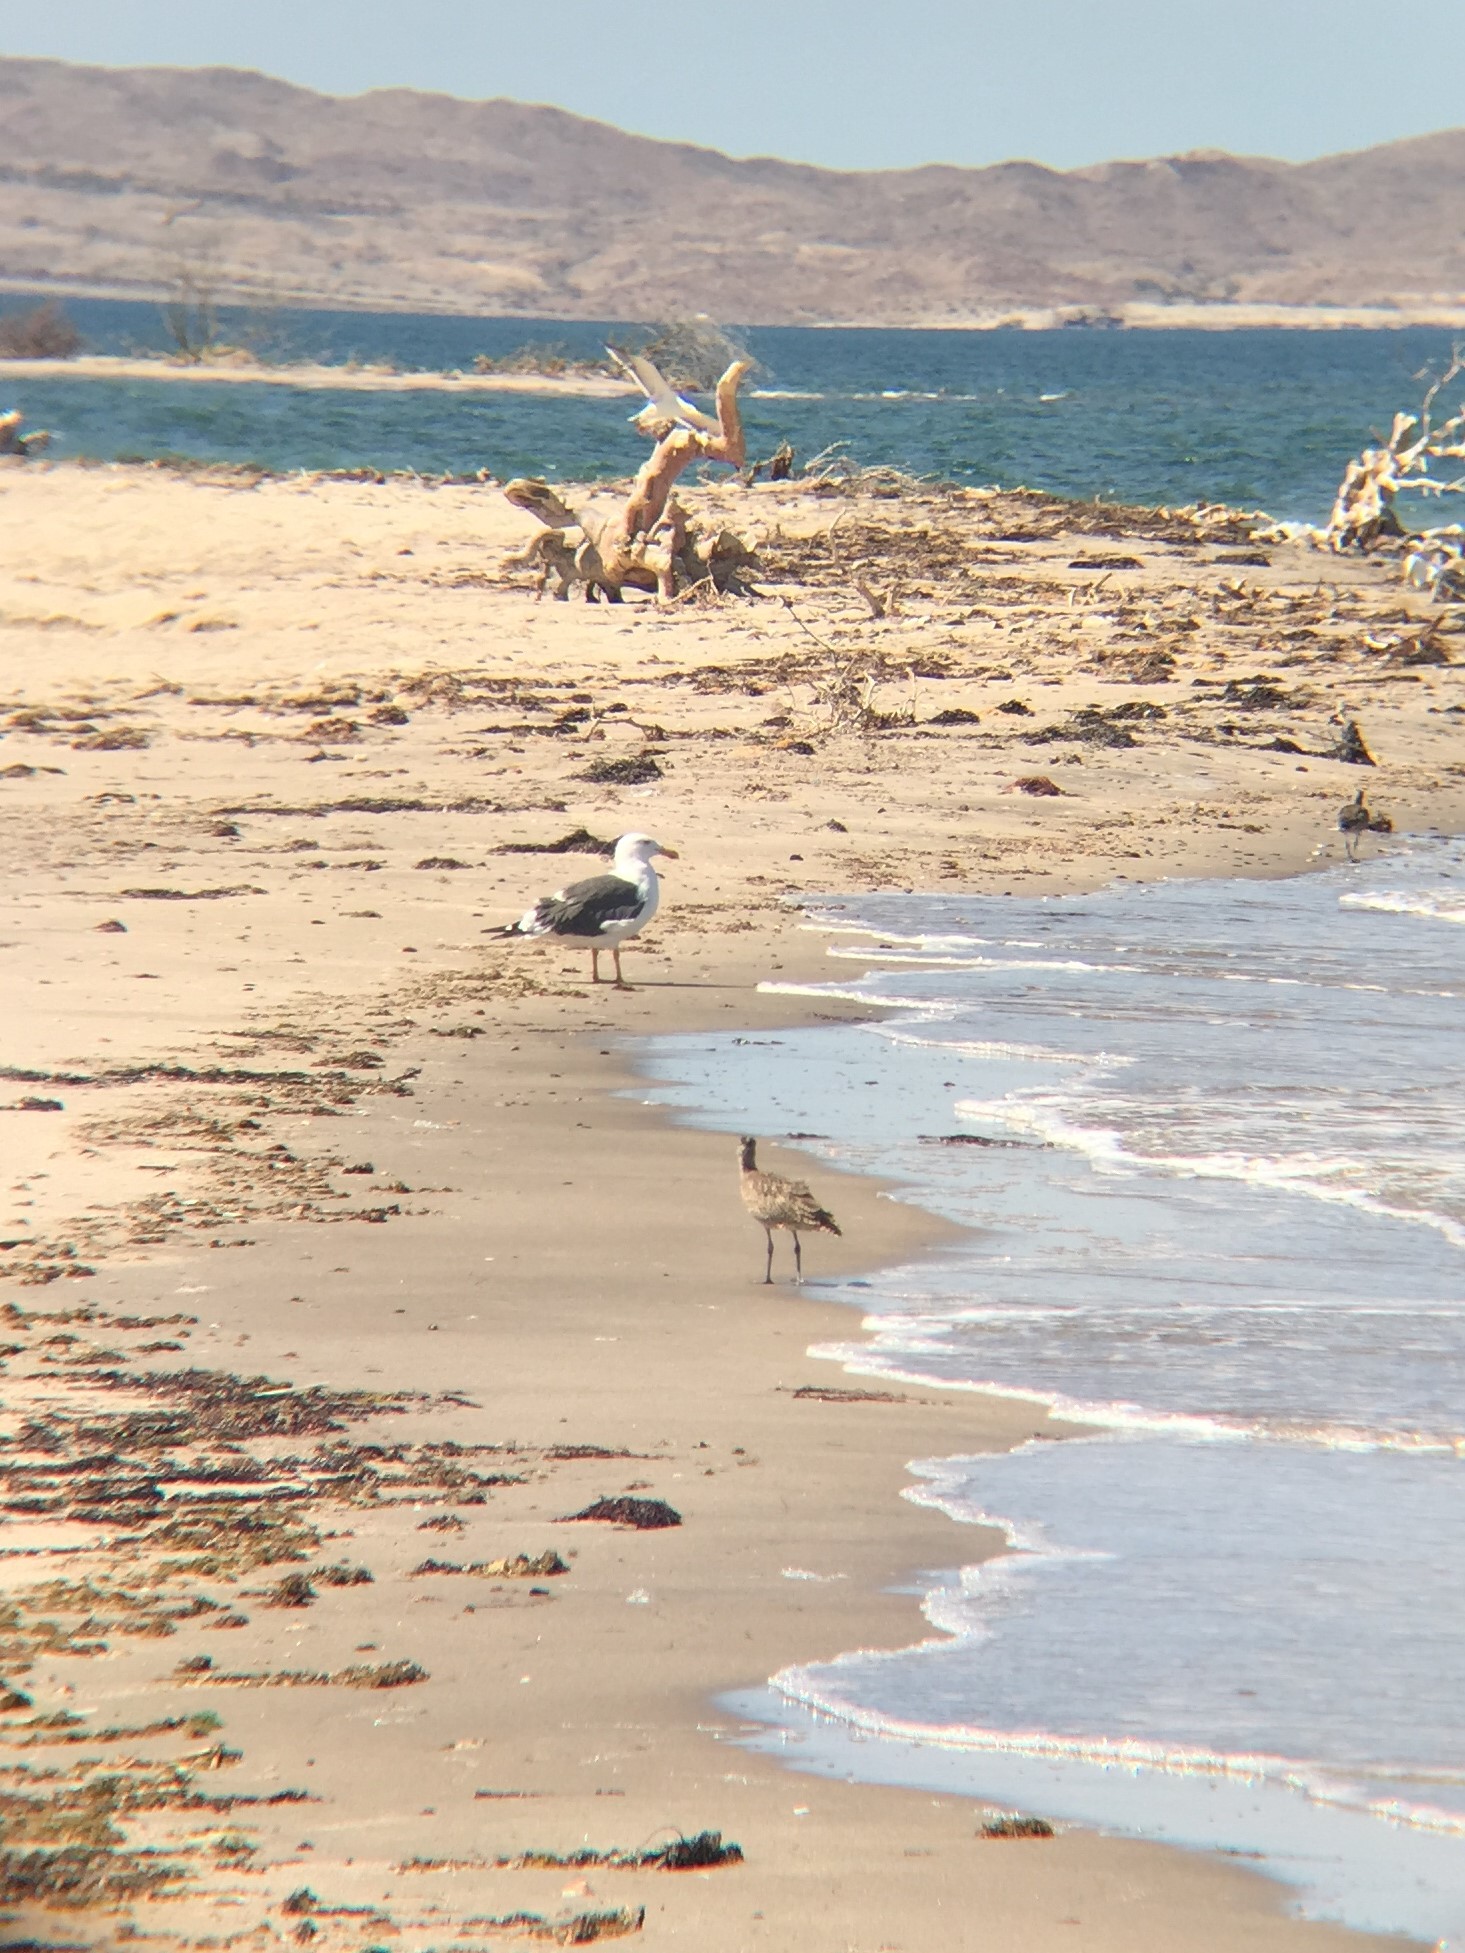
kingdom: Animalia
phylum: Chordata
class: Aves
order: Charadriiformes
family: Laridae
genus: Larus
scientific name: Larus livens
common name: Yellow-footed gull
